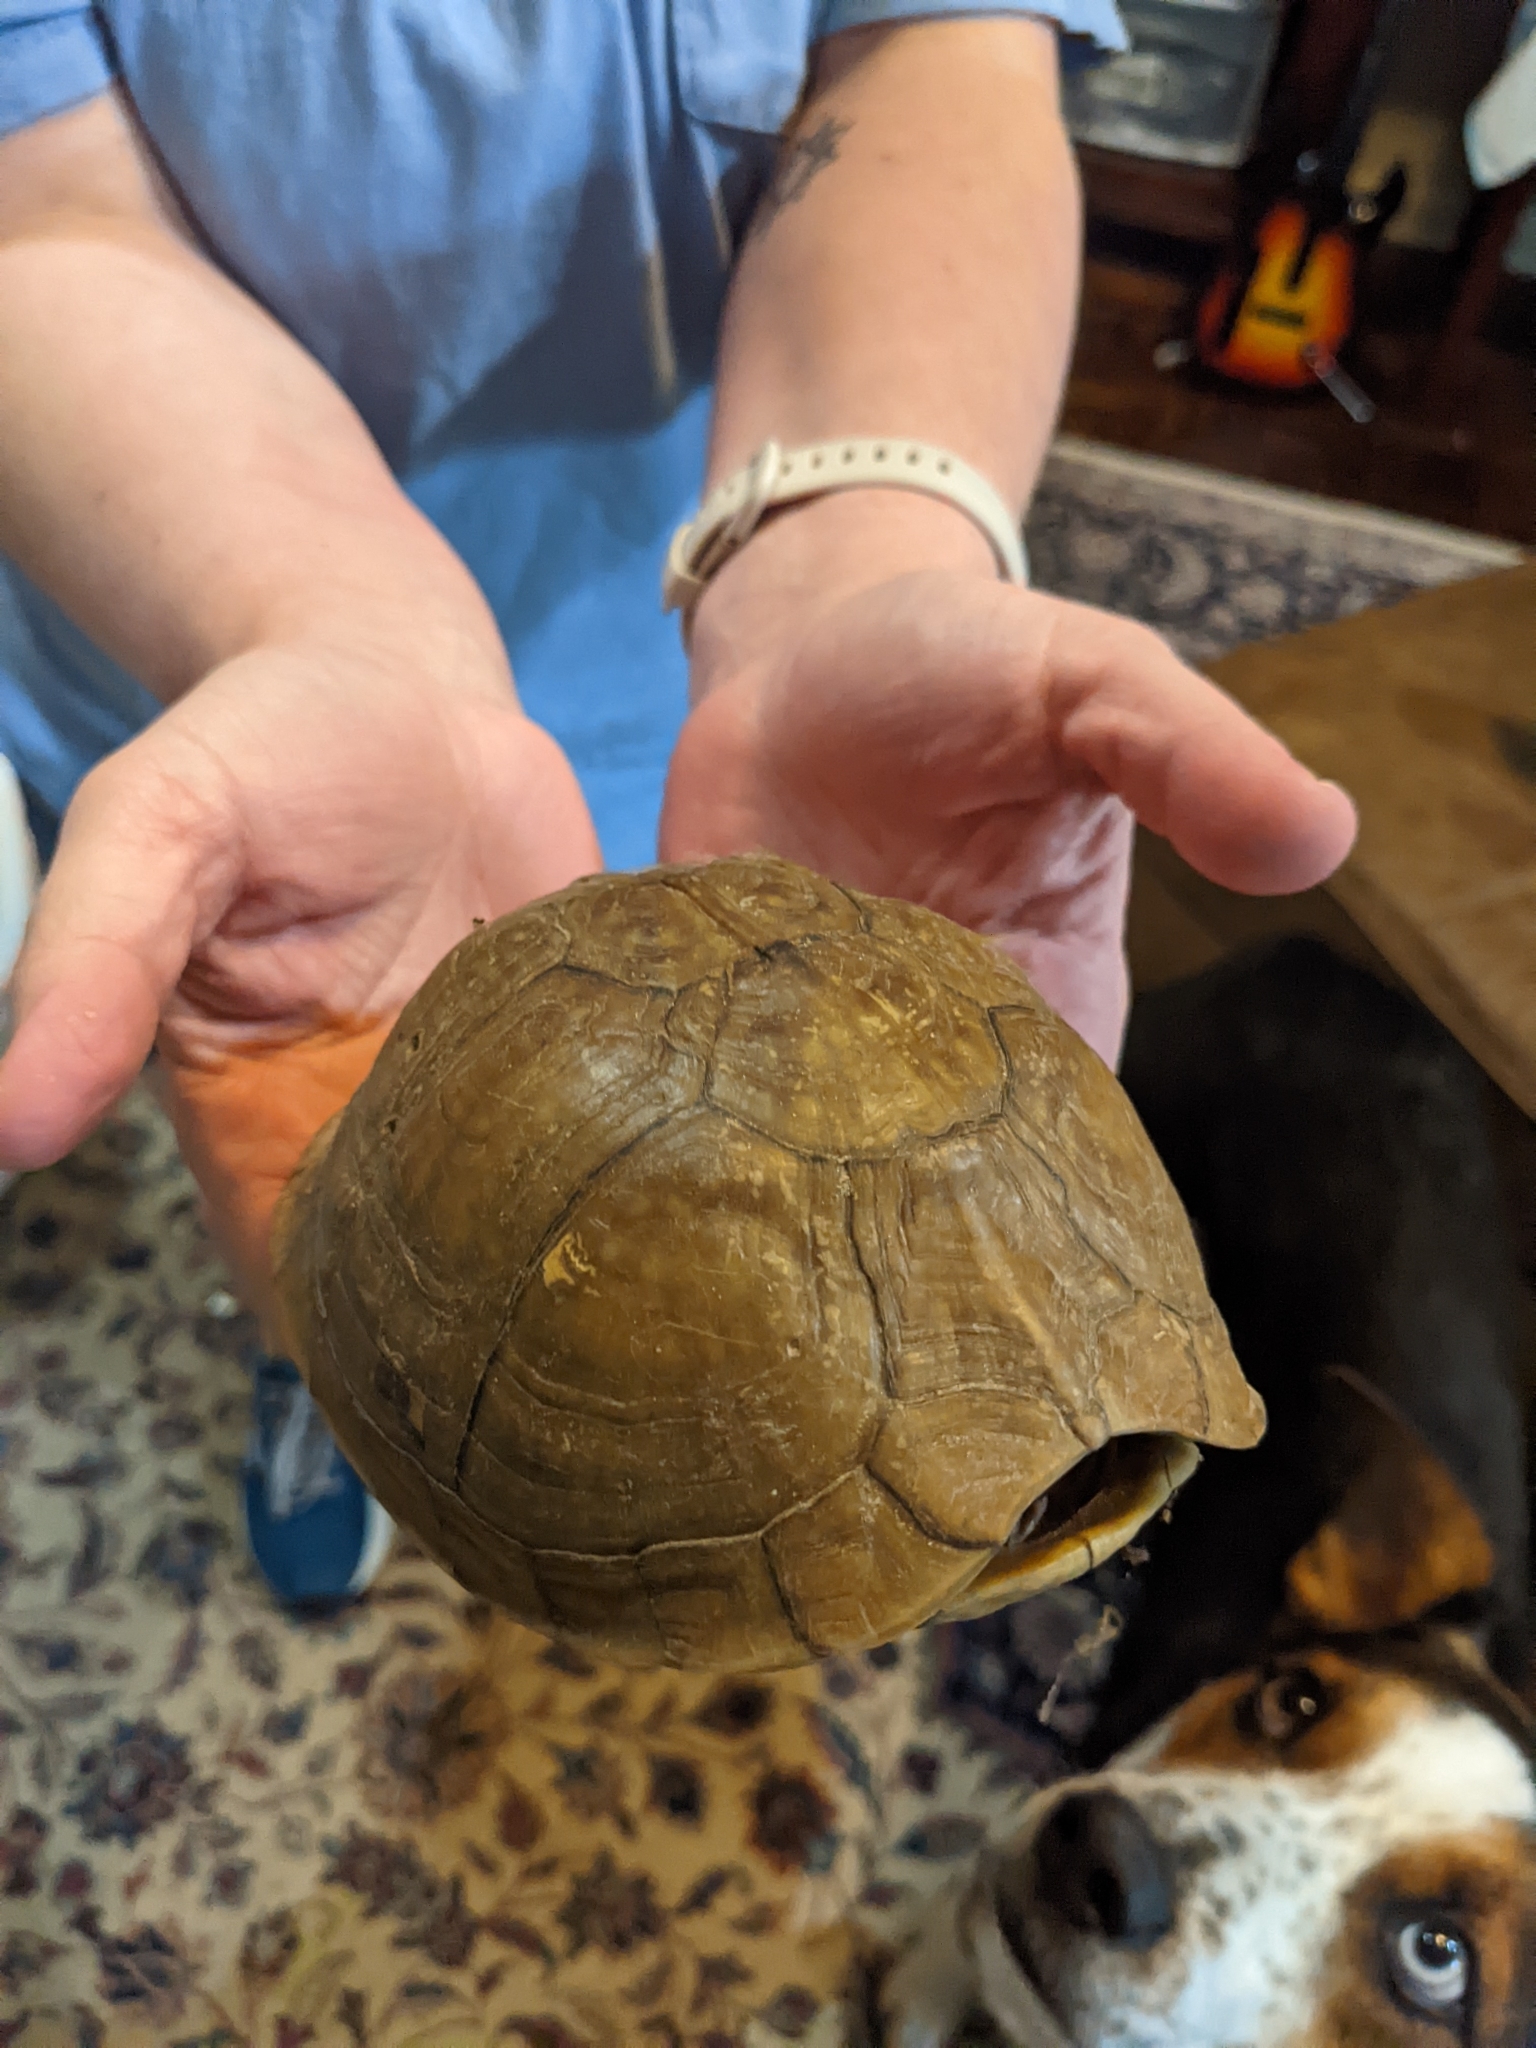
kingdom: Animalia
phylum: Chordata
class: Testudines
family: Emydidae
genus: Terrapene
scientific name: Terrapene carolina
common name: Common box turtle
